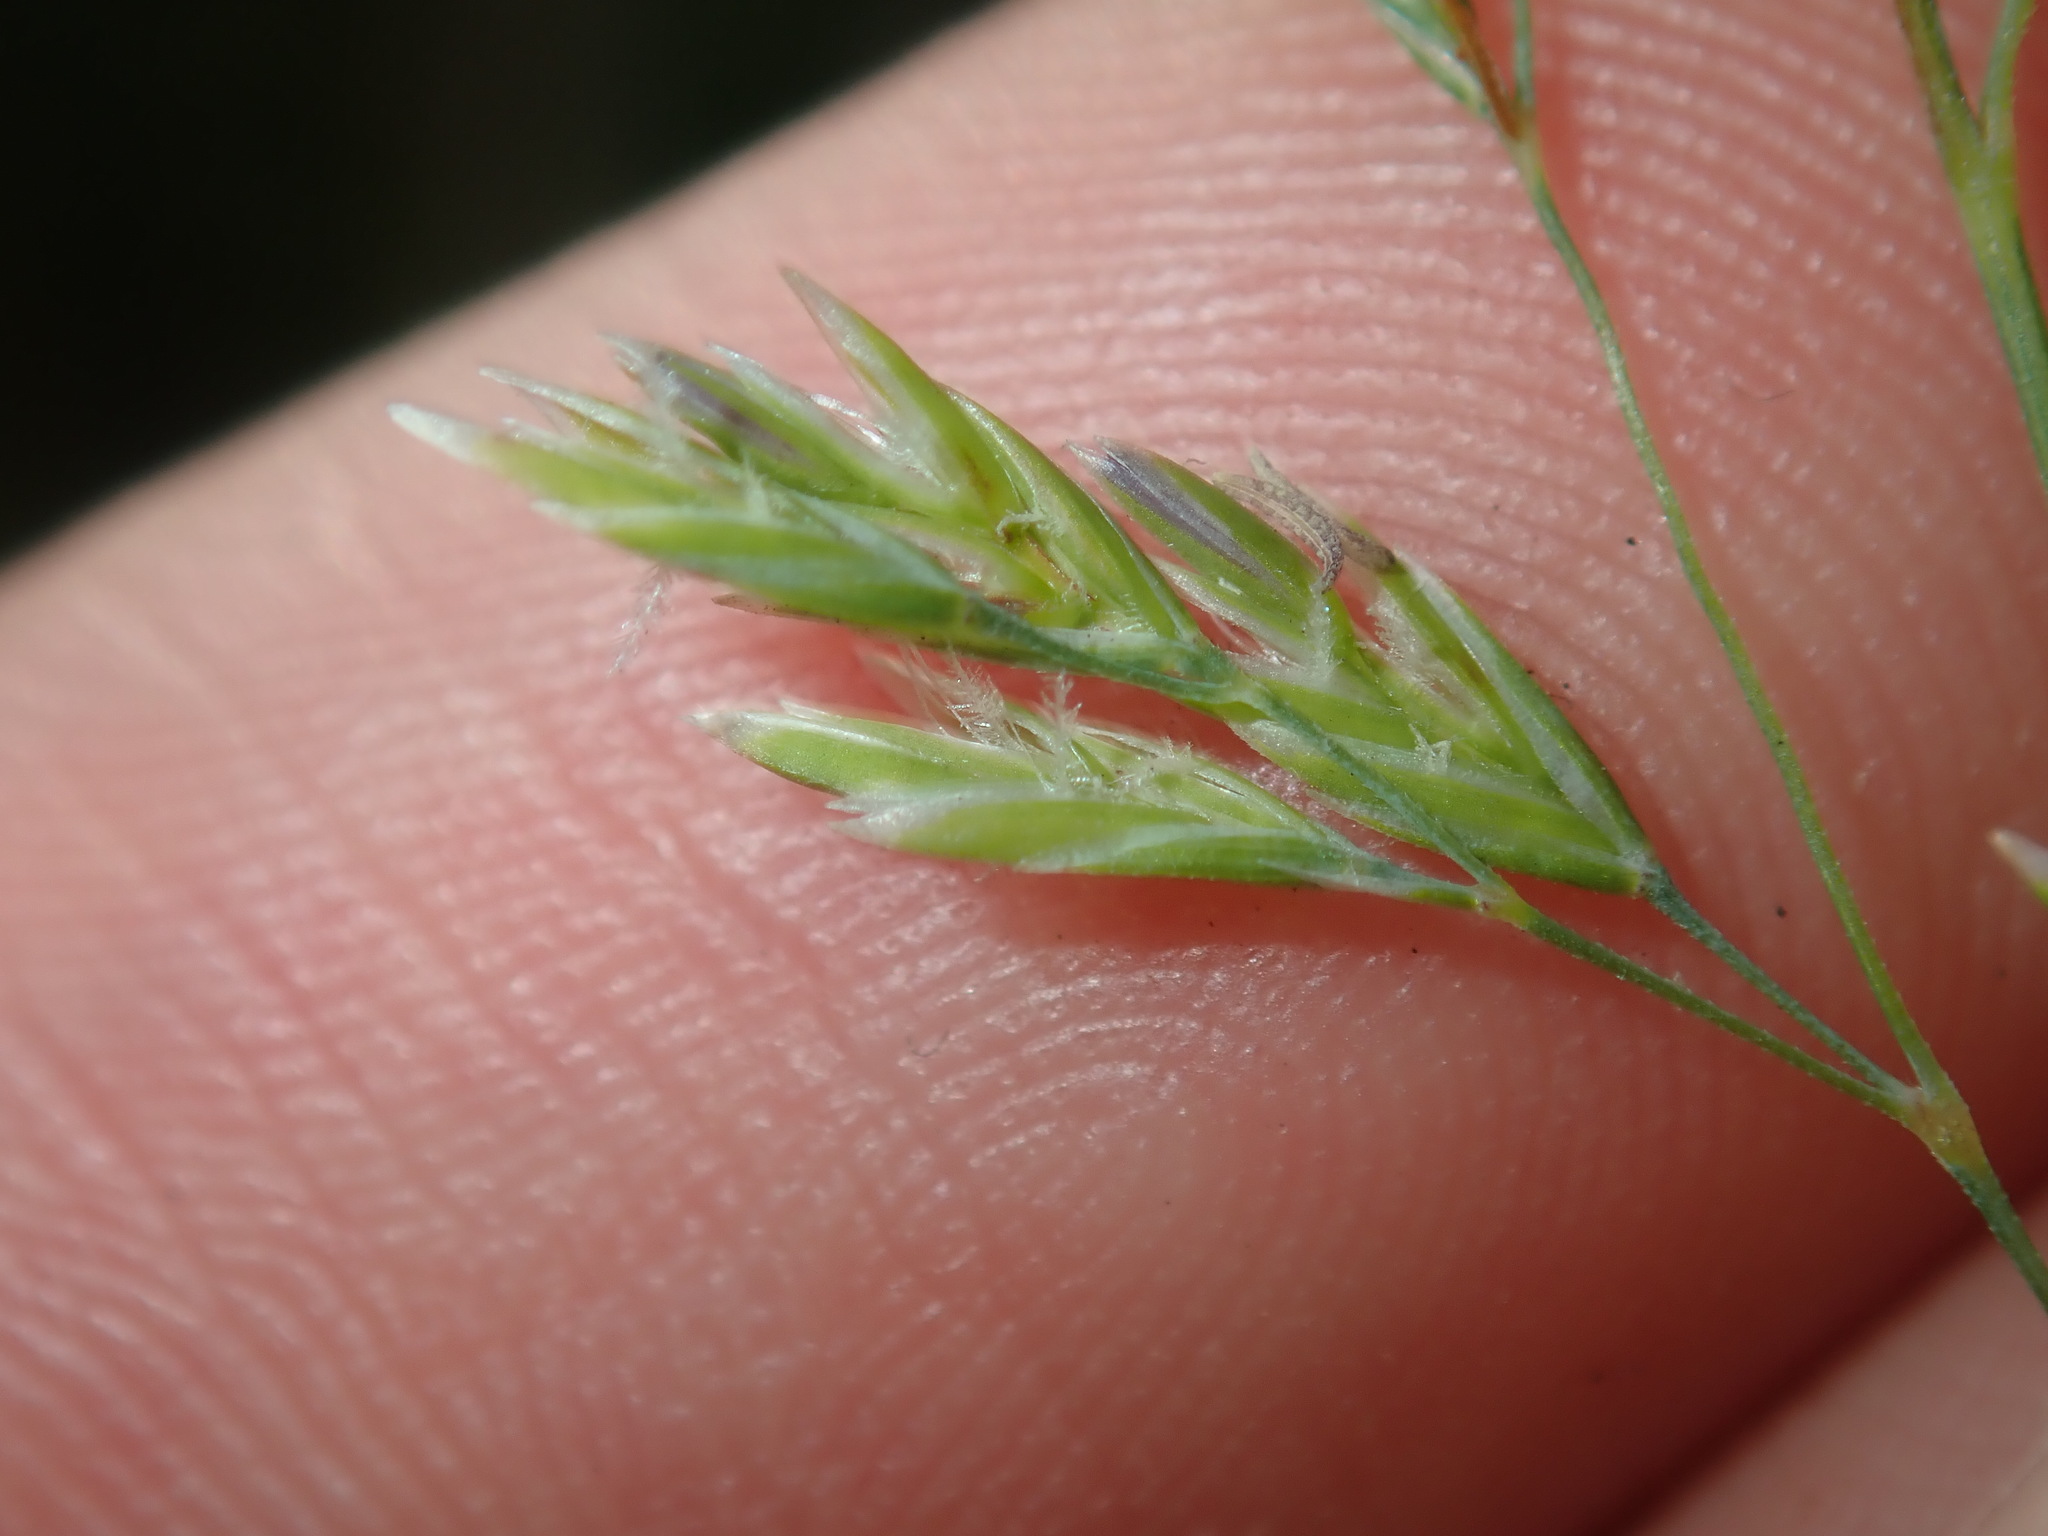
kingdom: Plantae
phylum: Tracheophyta
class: Liliopsida
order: Poales
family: Poaceae
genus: Poa
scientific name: Poa
